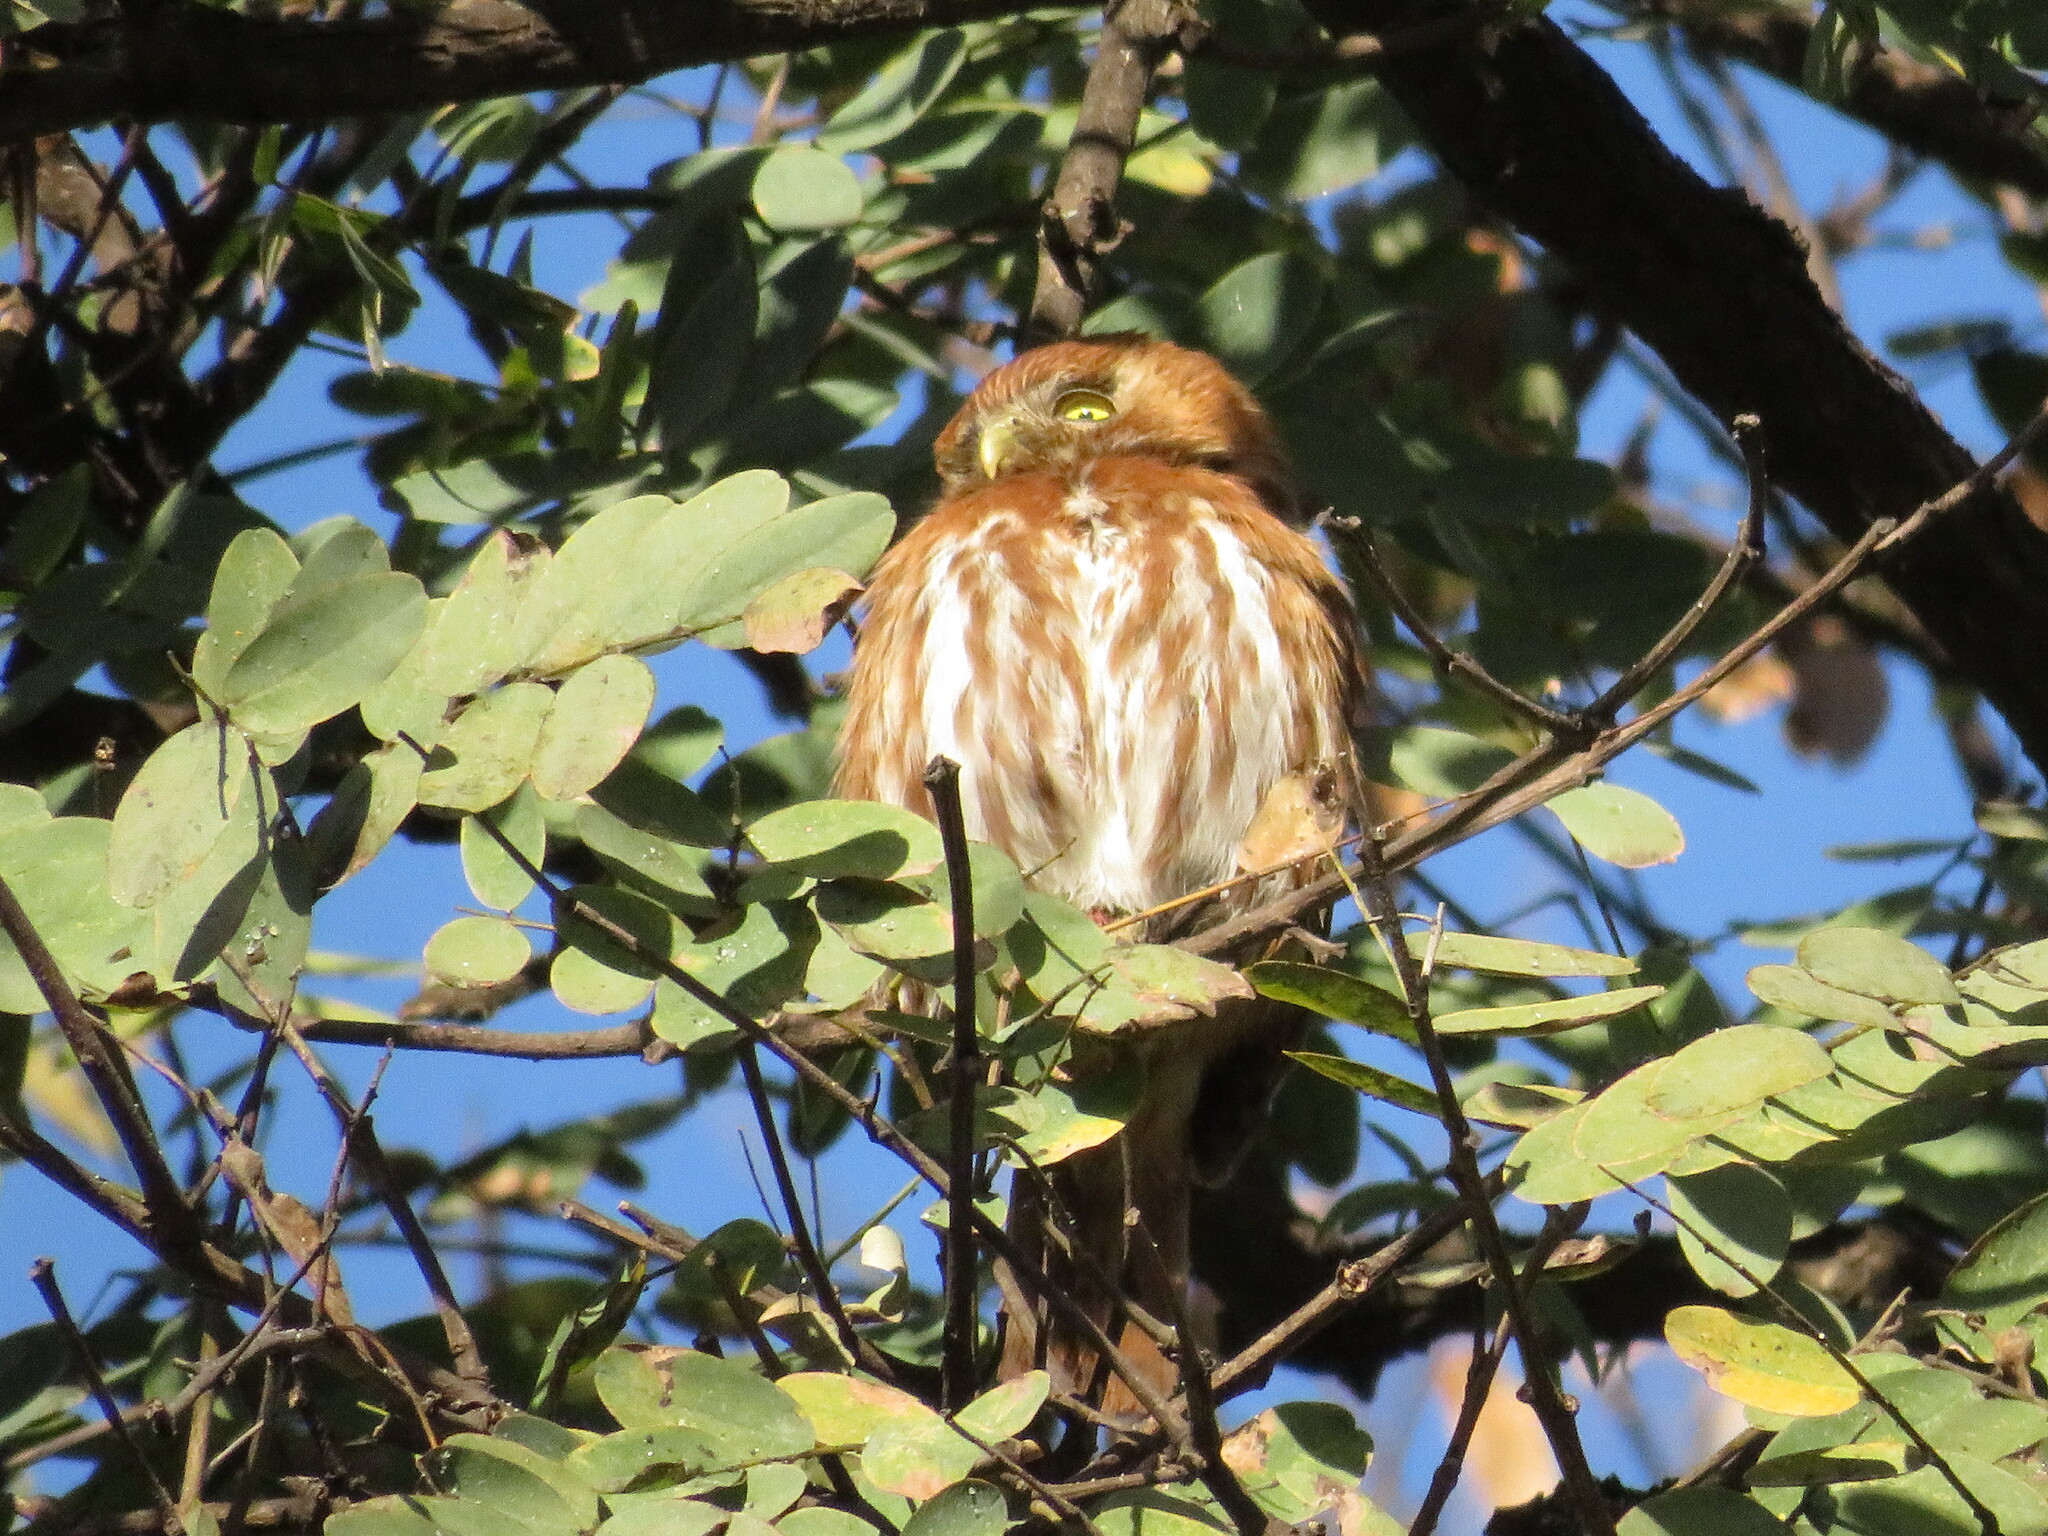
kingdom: Animalia
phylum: Chordata
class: Aves
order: Strigiformes
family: Strigidae
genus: Glaucidium
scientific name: Glaucidium brasilianum
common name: Ferruginous pygmy-owl
